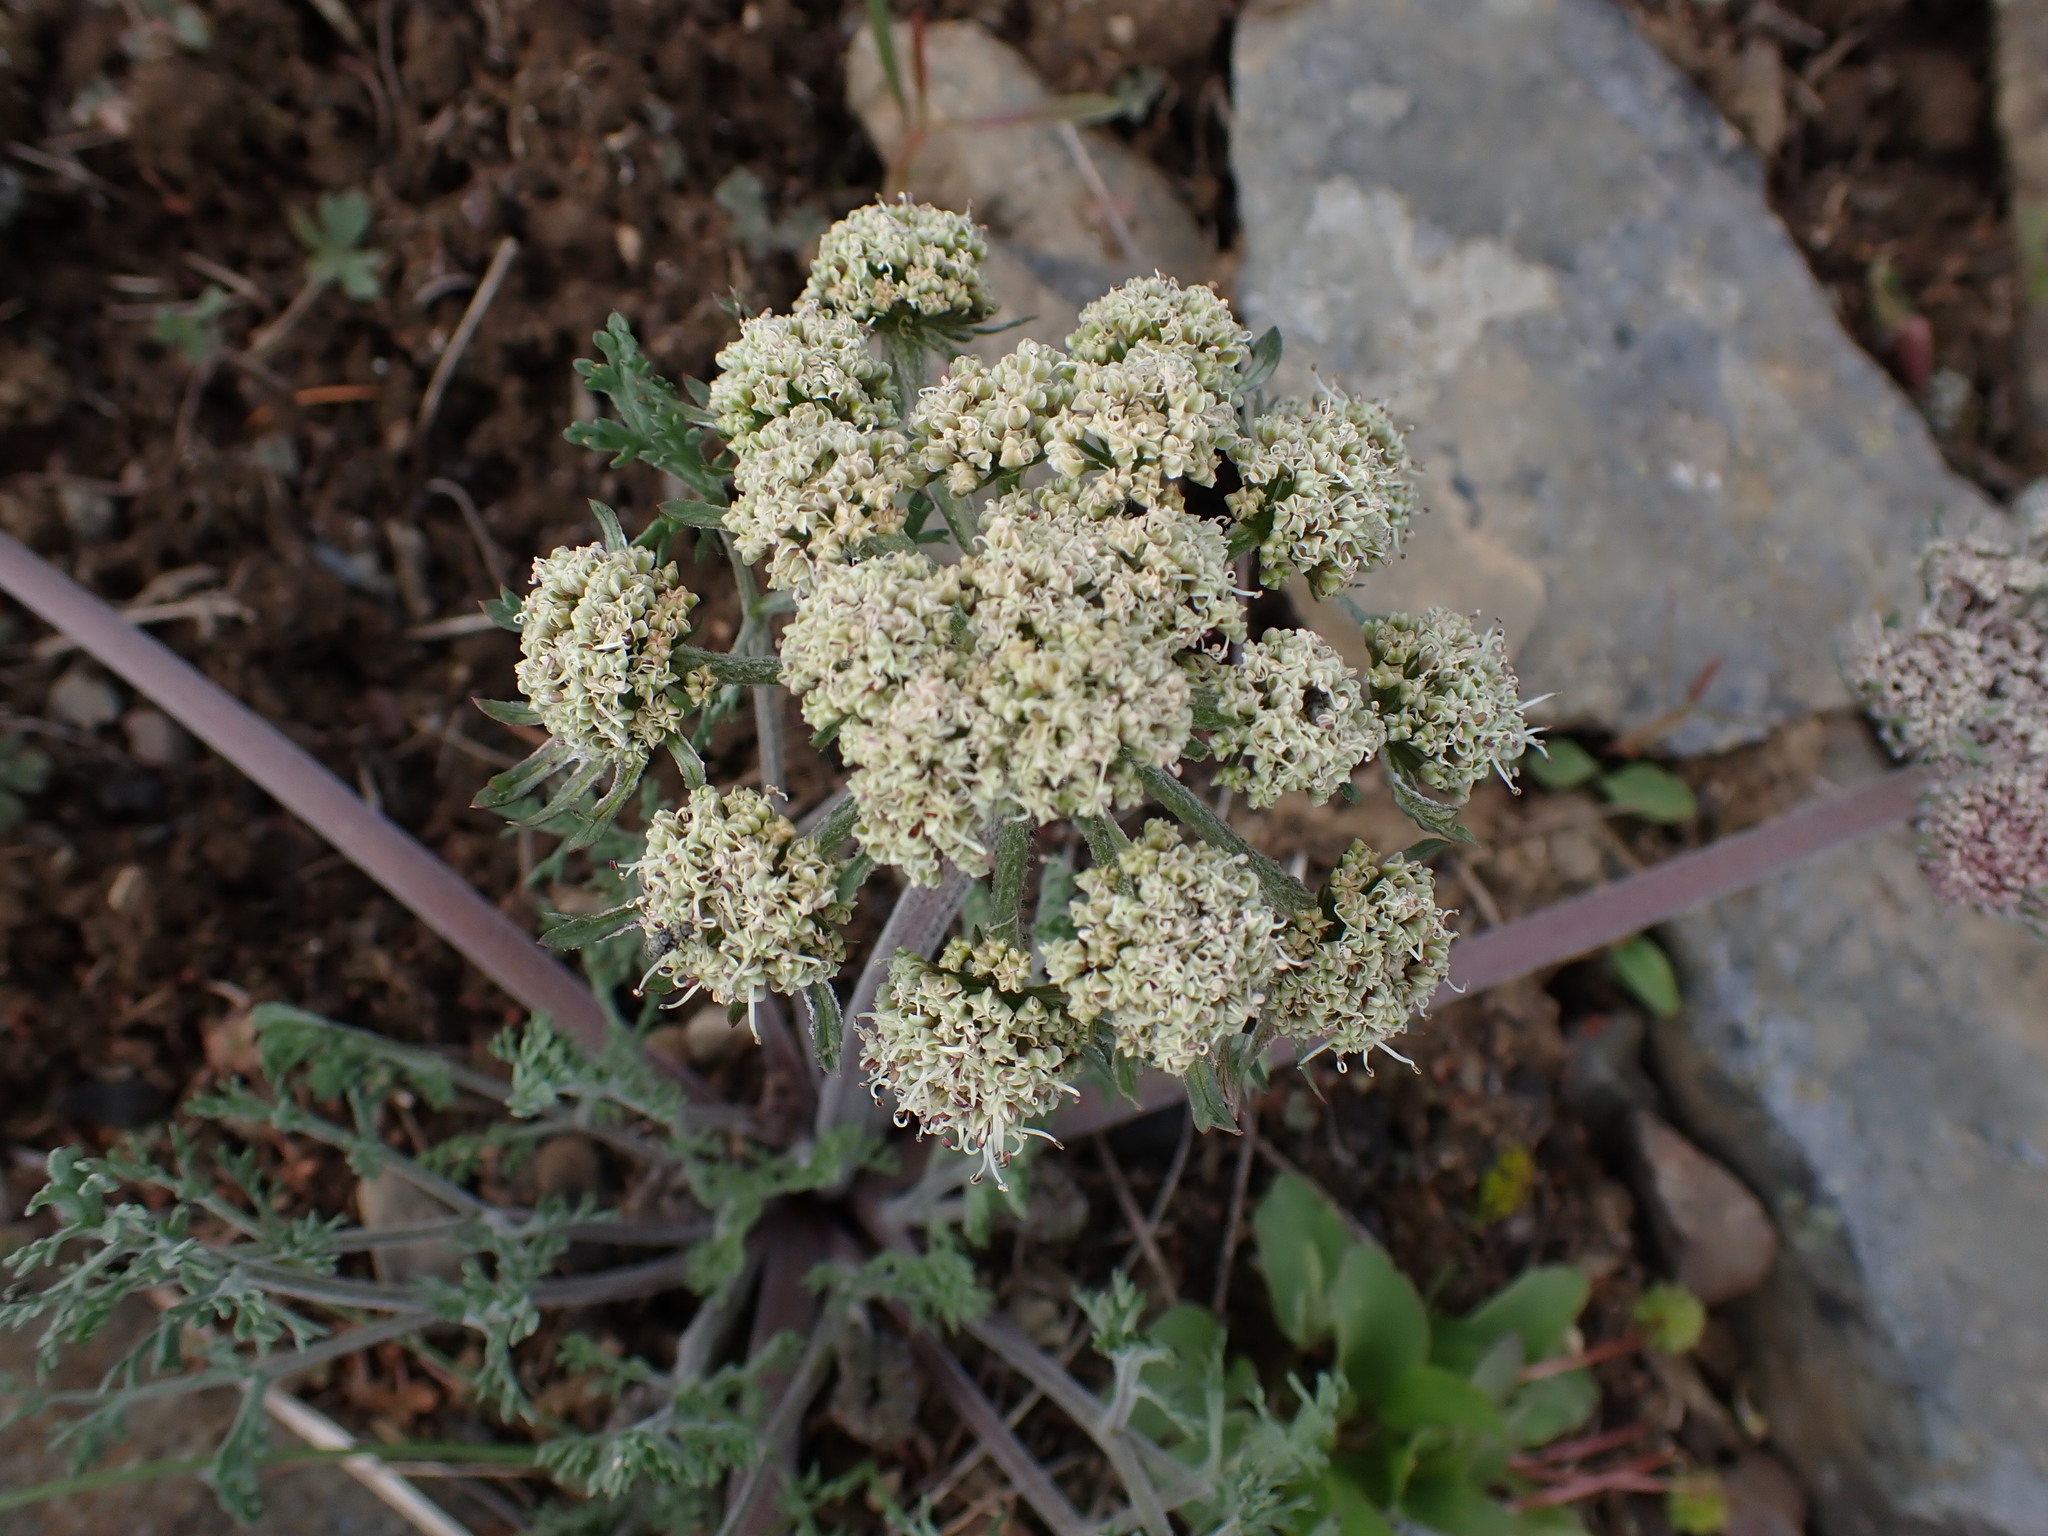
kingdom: Plantae
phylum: Tracheophyta
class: Magnoliopsida
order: Apiales
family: Apiaceae
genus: Lomatium
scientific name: Lomatium macrocarpum
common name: Big-seed biscuitroot
